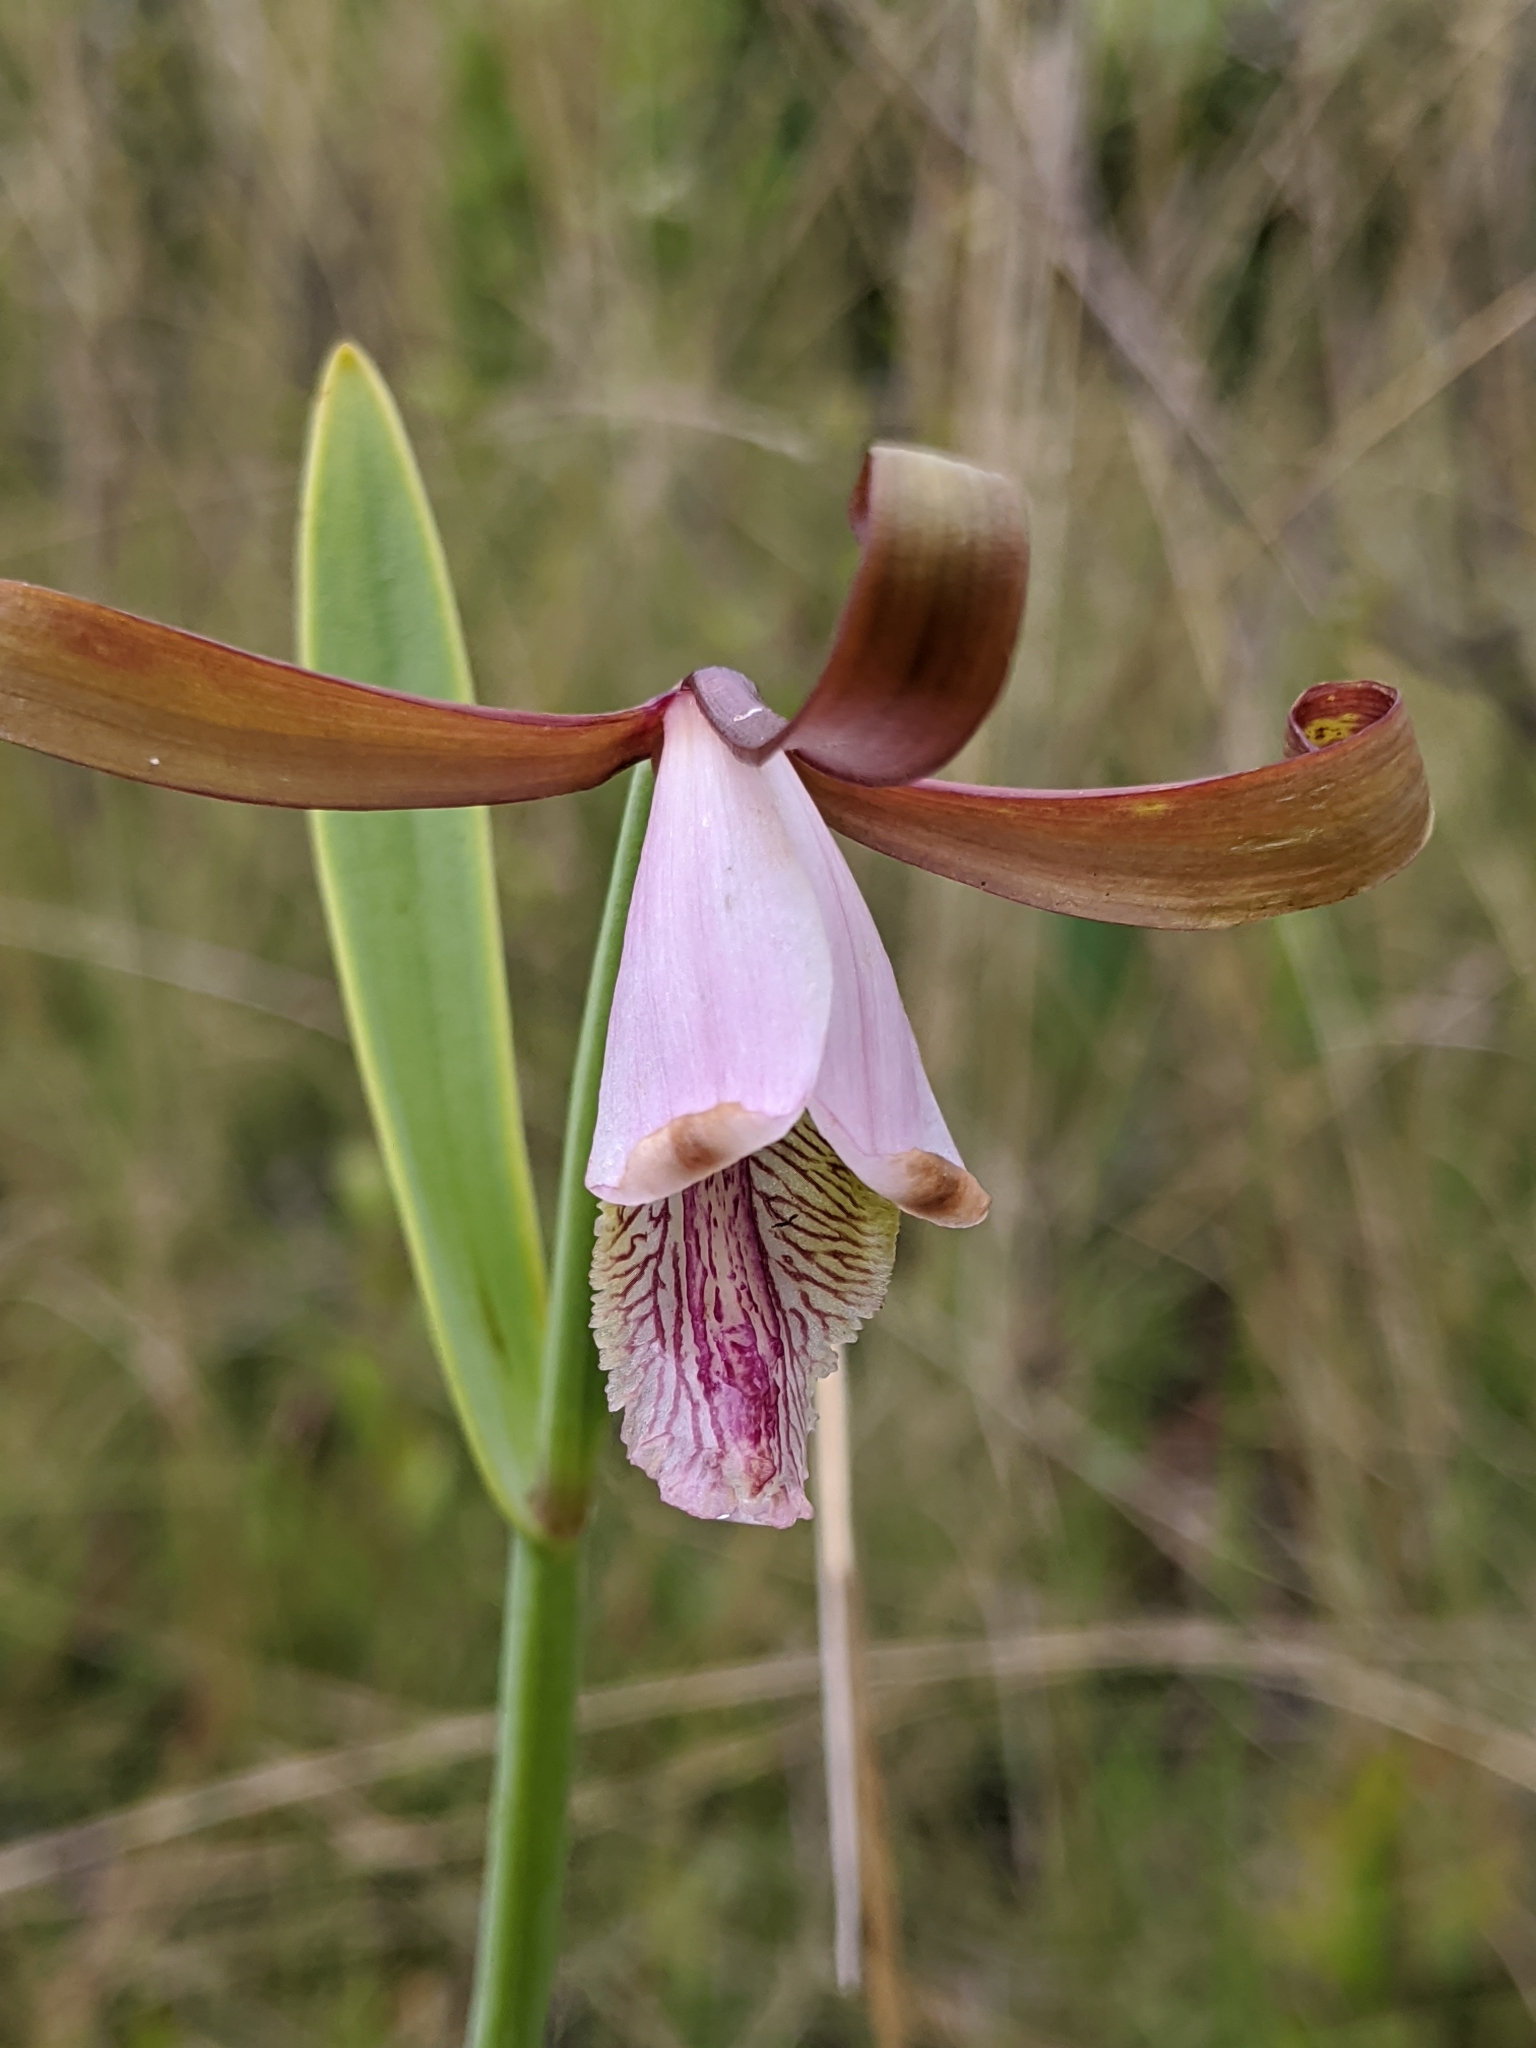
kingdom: Plantae
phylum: Tracheophyta
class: Liliopsida
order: Asparagales
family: Orchidaceae
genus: Cleistesiopsis
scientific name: Cleistesiopsis oricamporum
